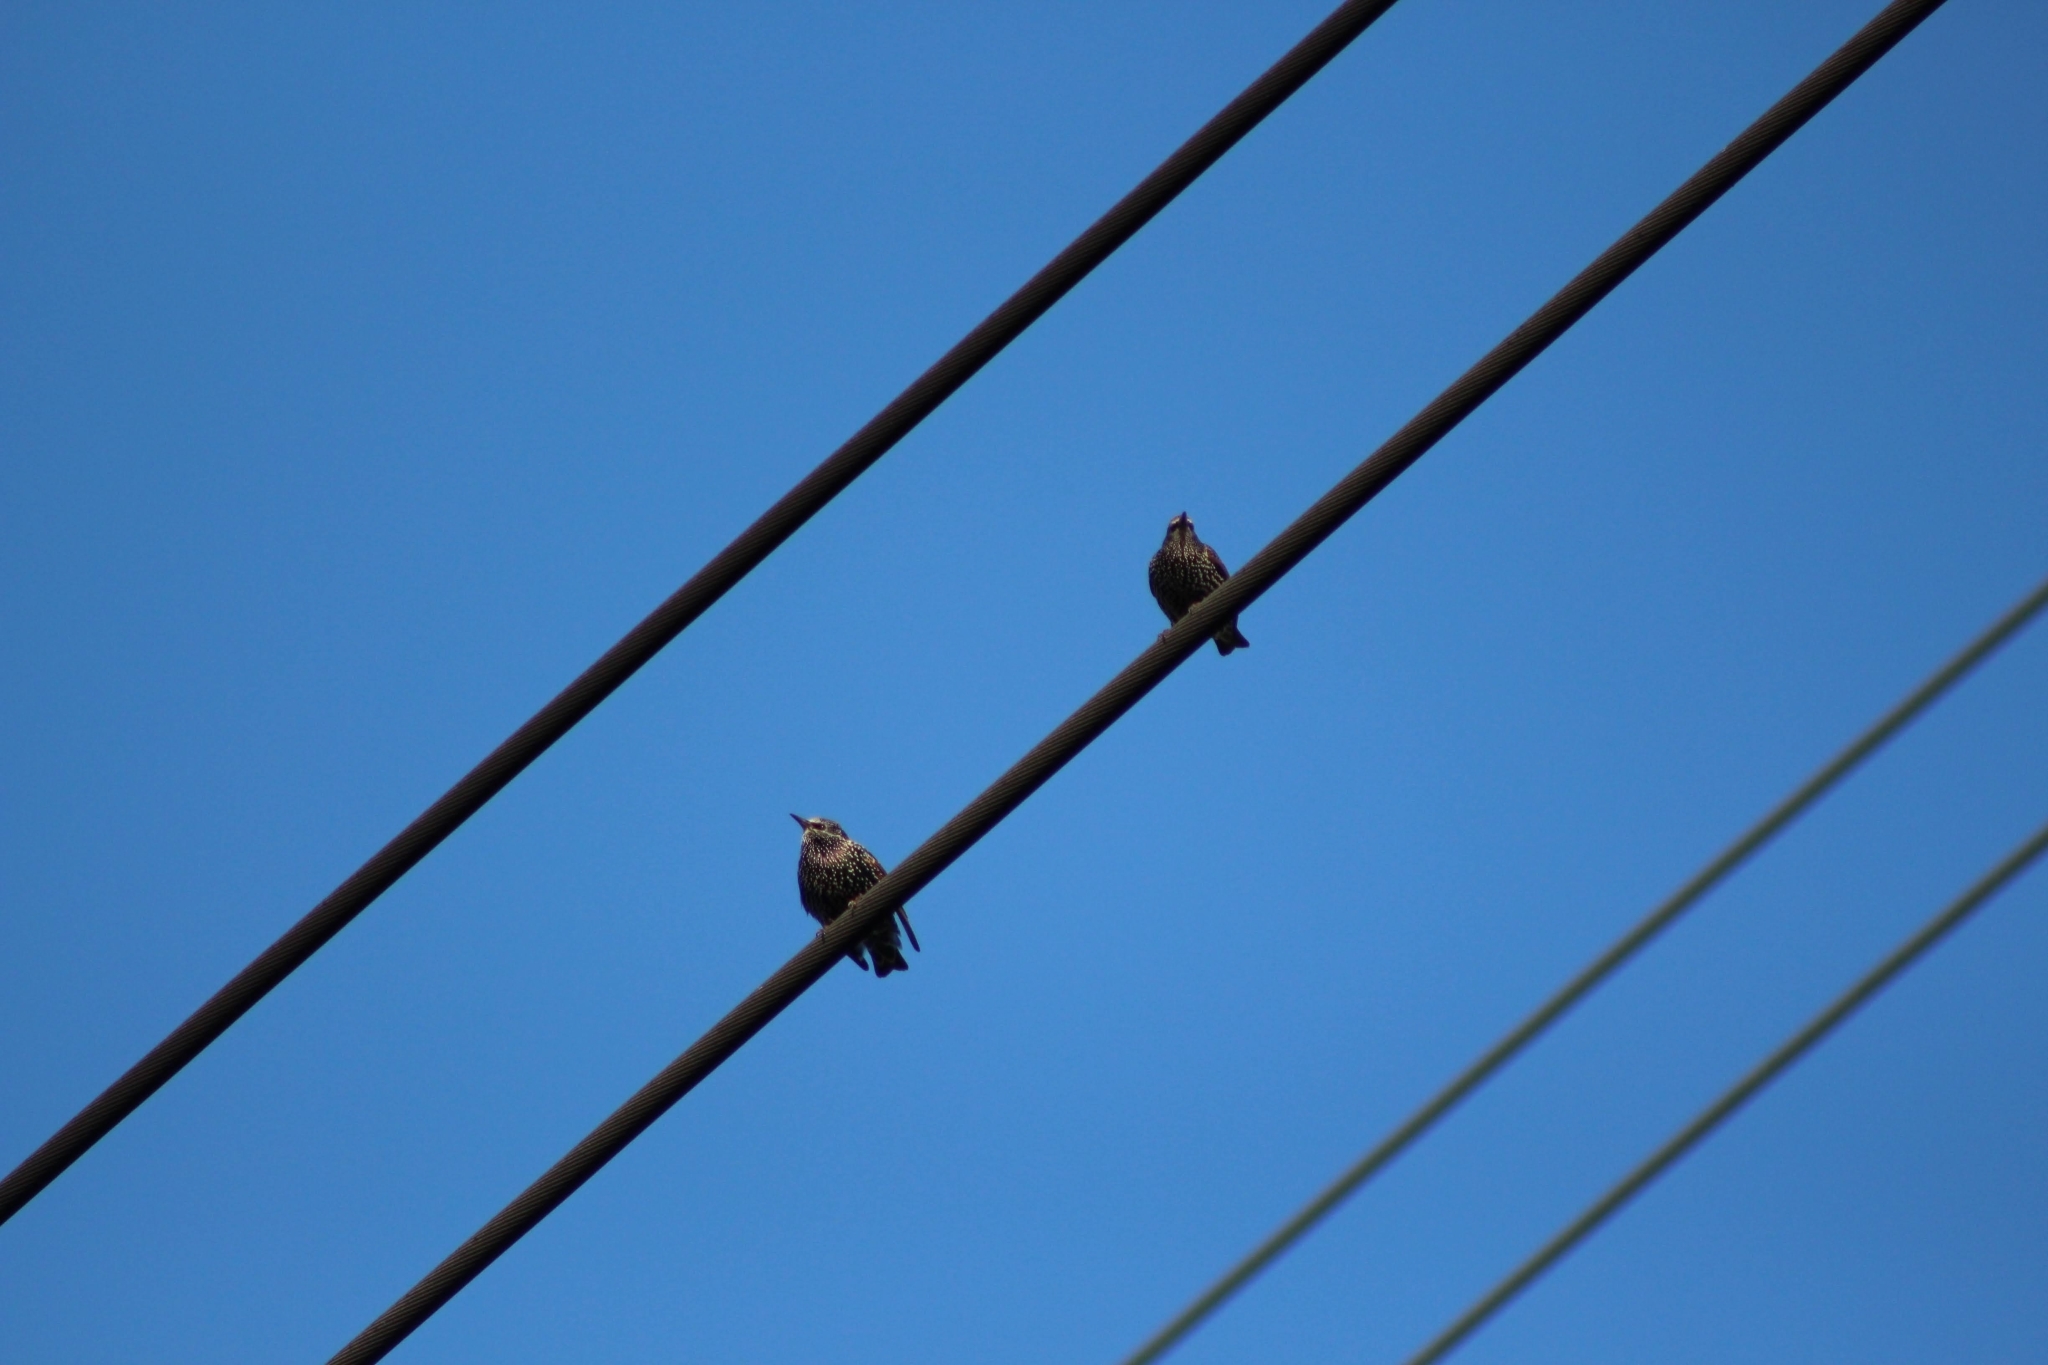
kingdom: Animalia
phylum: Chordata
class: Aves
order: Passeriformes
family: Sturnidae
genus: Sturnus
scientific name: Sturnus vulgaris
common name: Common starling
